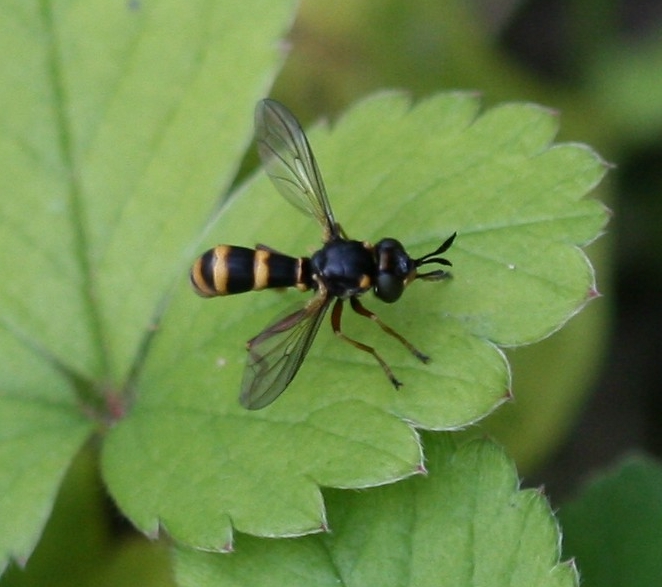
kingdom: Animalia
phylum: Arthropoda
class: Insecta
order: Diptera
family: Conopidae
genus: Conops
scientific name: Conops quadrifasciatus
